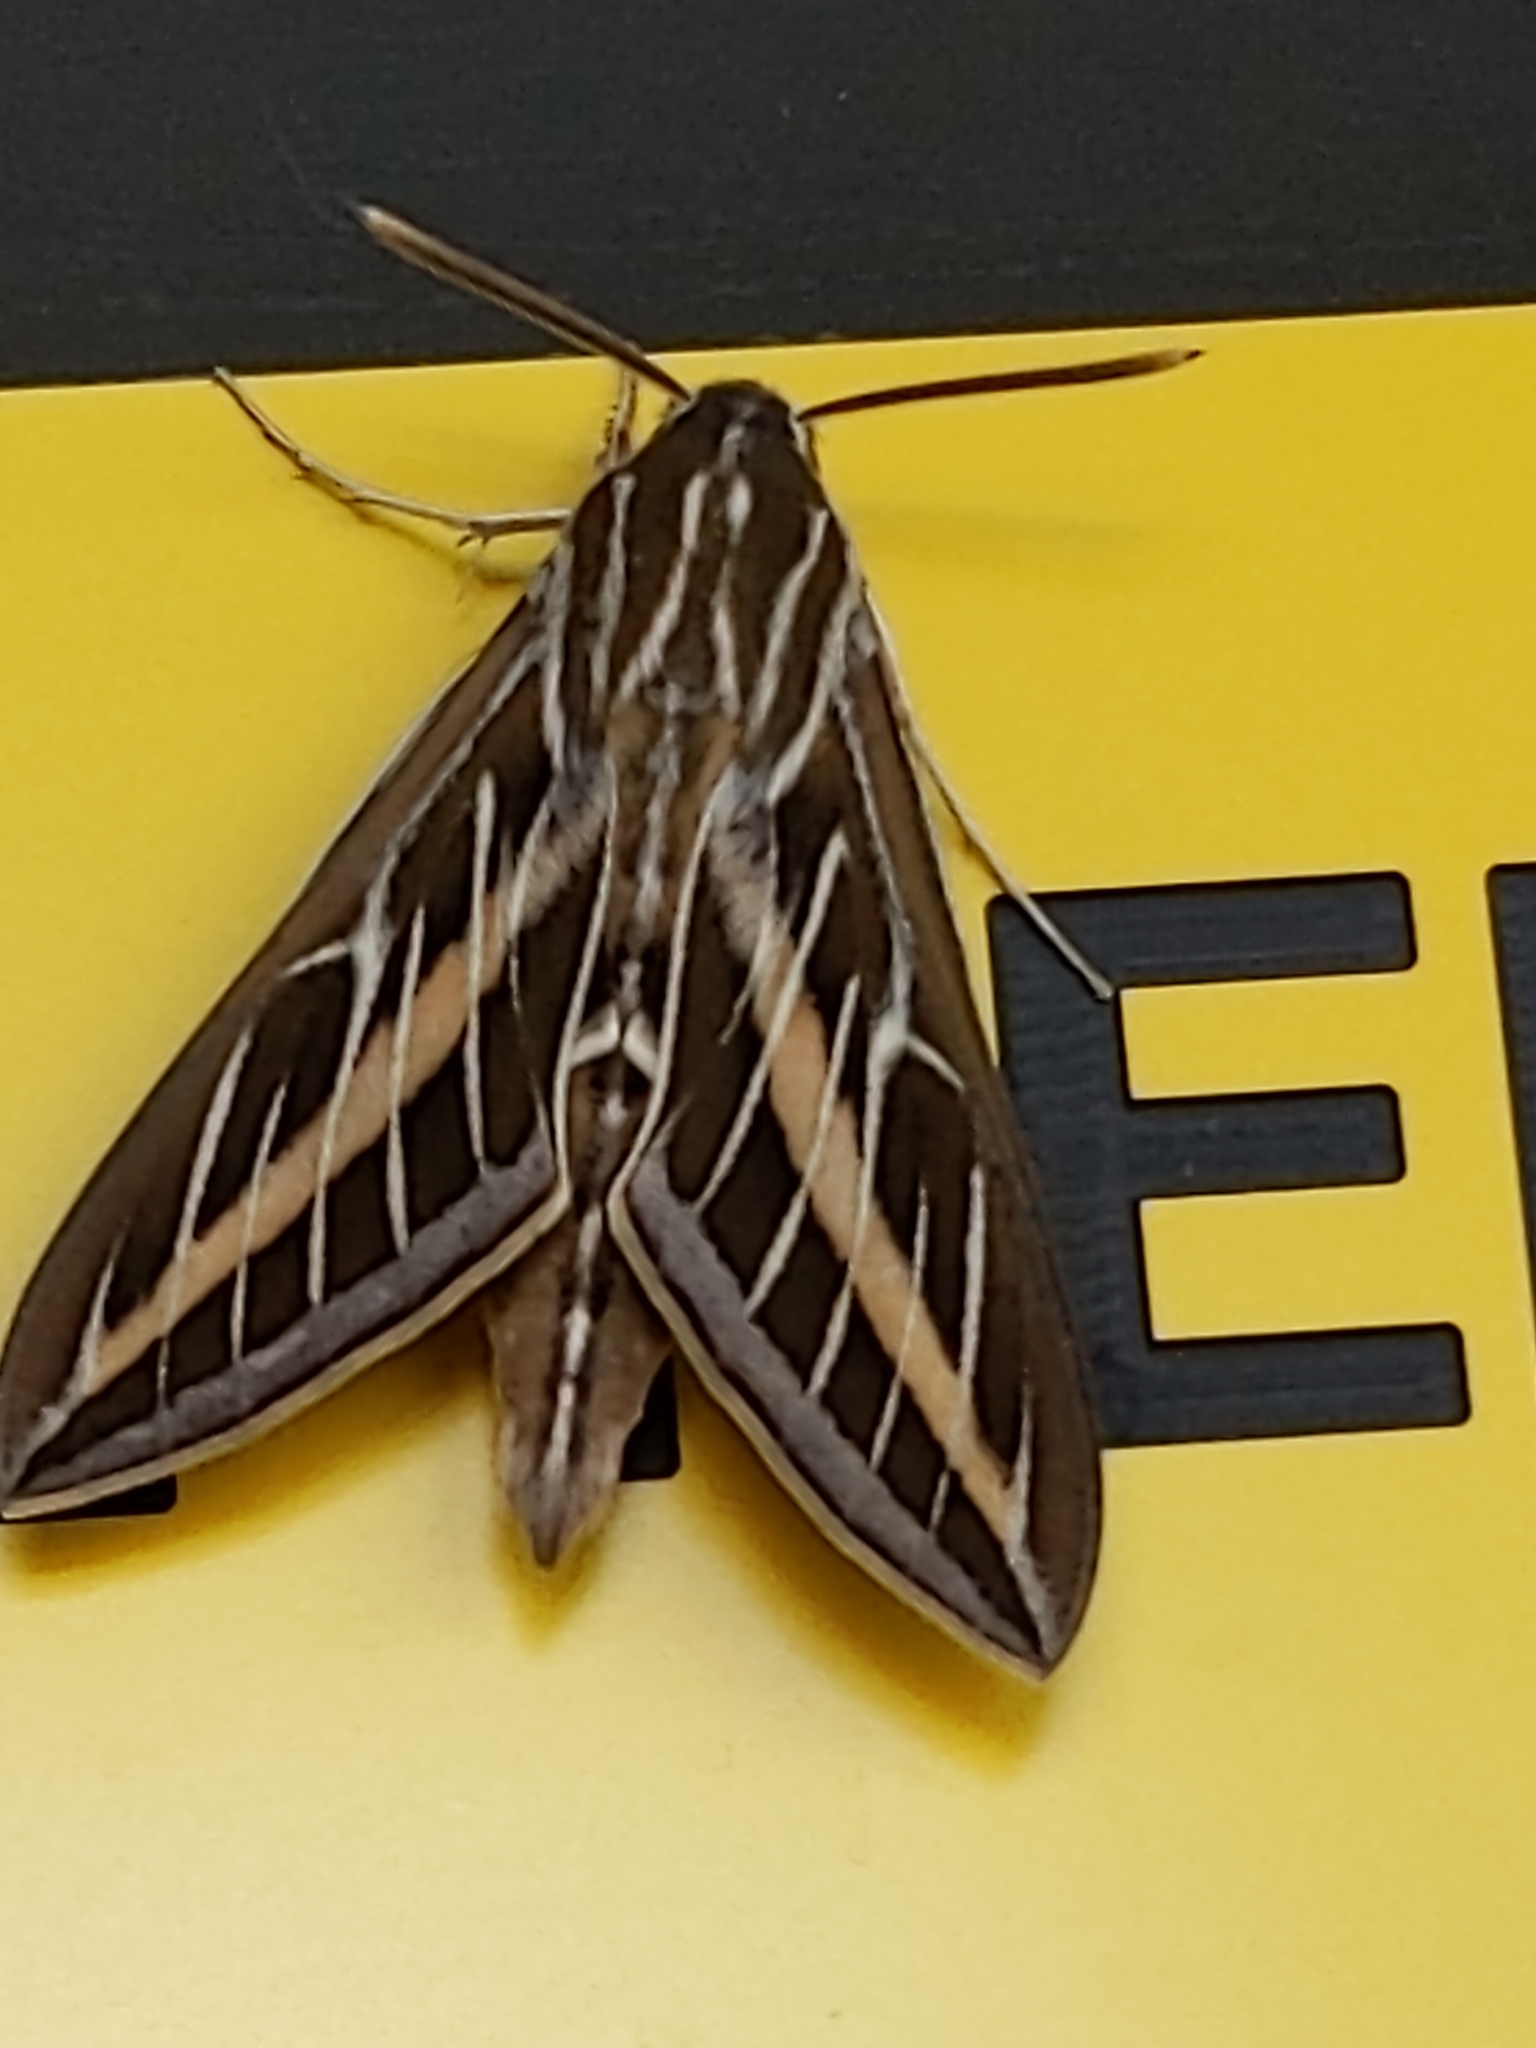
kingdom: Animalia
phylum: Arthropoda
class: Insecta
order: Lepidoptera
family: Sphingidae
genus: Hyles
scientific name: Hyles lineata
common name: White-lined sphinx
